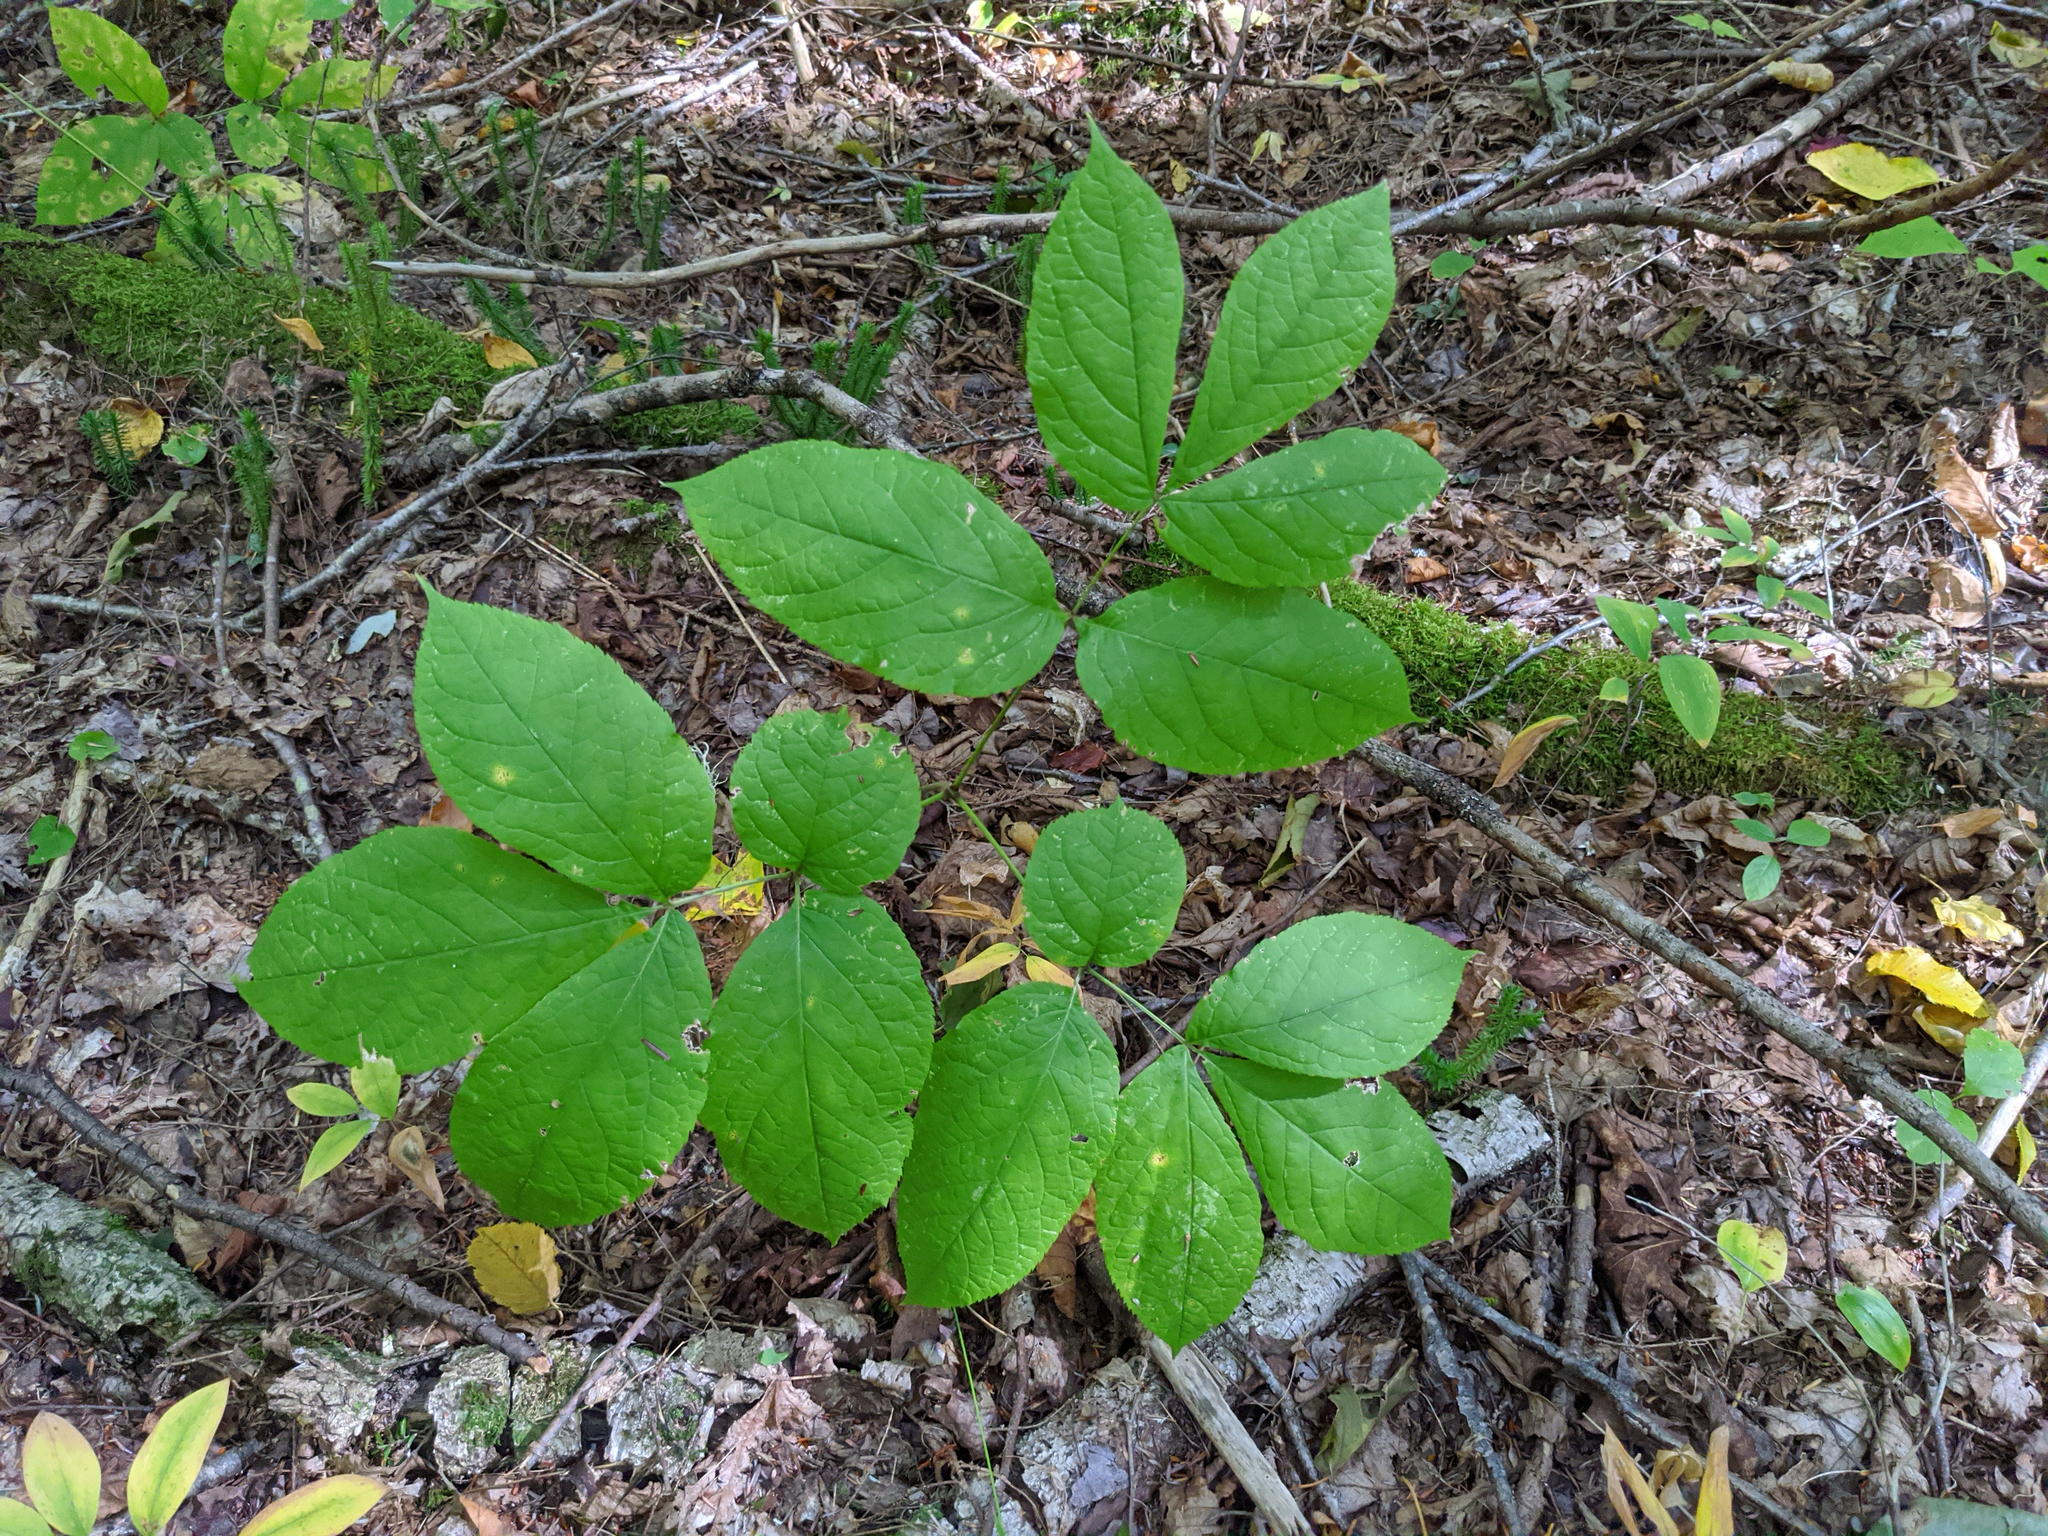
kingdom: Plantae
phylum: Tracheophyta
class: Magnoliopsida
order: Apiales
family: Araliaceae
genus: Aralia
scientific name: Aralia nudicaulis
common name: Wild sarsaparilla
